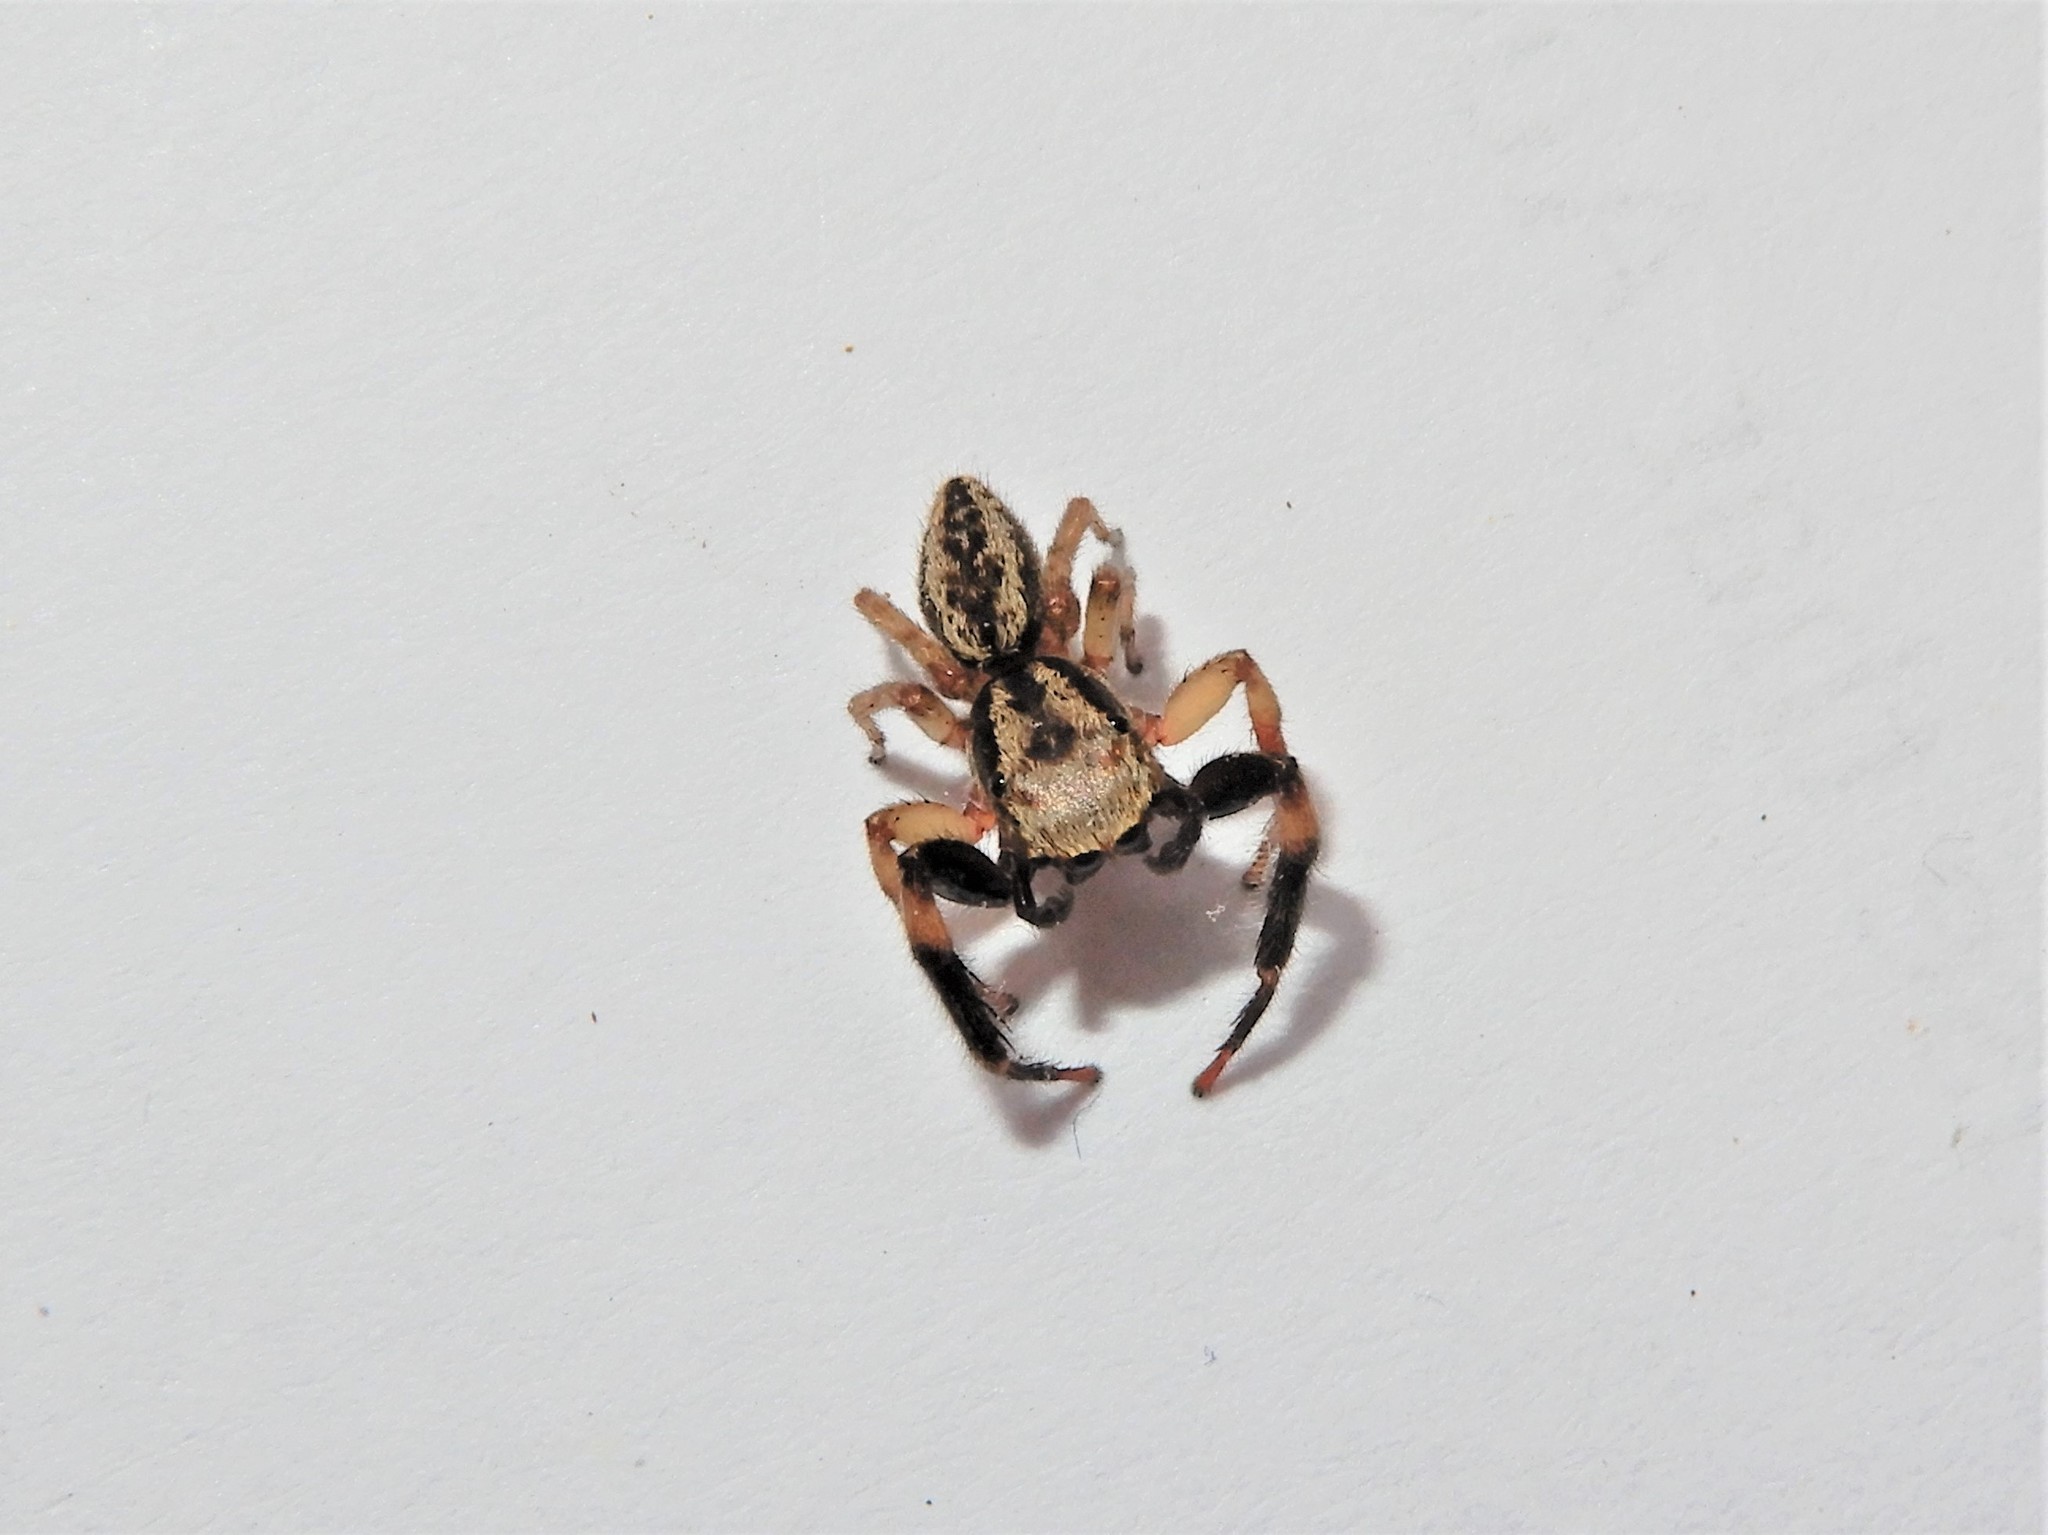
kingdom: Animalia
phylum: Arthropoda
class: Arachnida
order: Araneae
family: Salticidae
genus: Trite
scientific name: Trite auricoma
